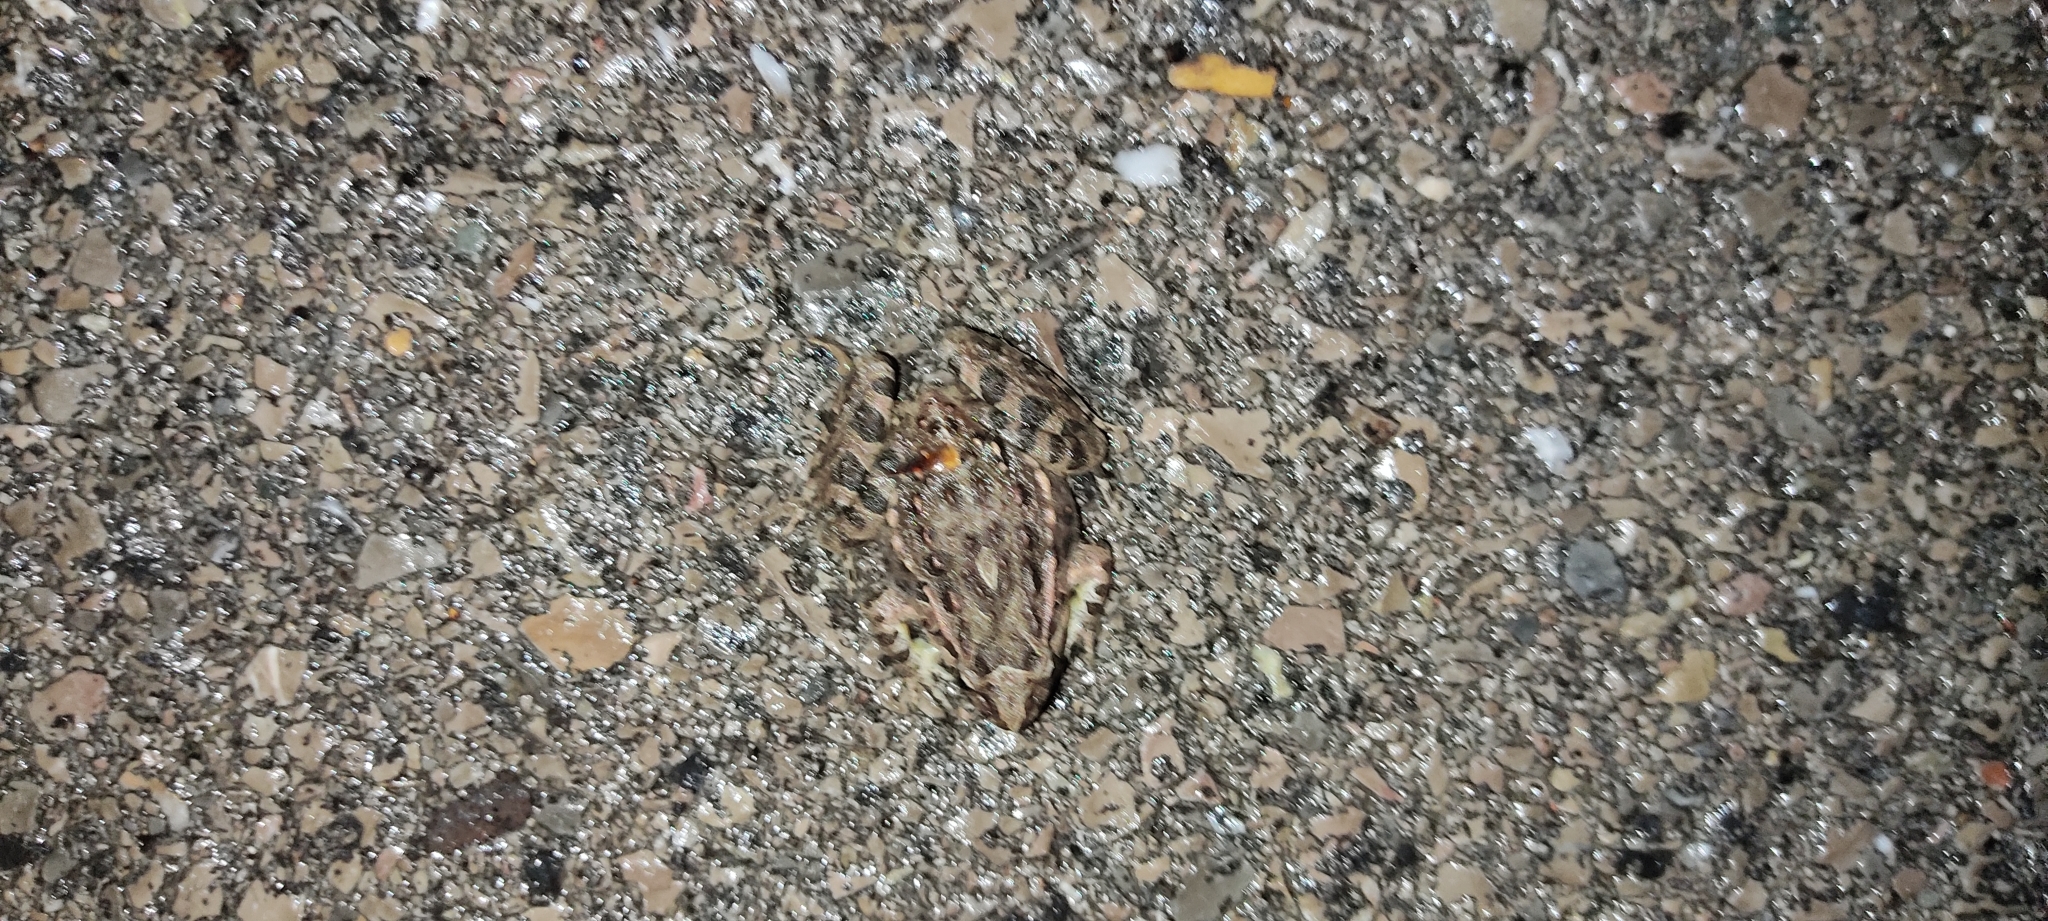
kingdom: Animalia
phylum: Chordata
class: Amphibia
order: Anura
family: Alytidae
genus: Discoglossus
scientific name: Discoglossus pictus
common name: Painted frog
